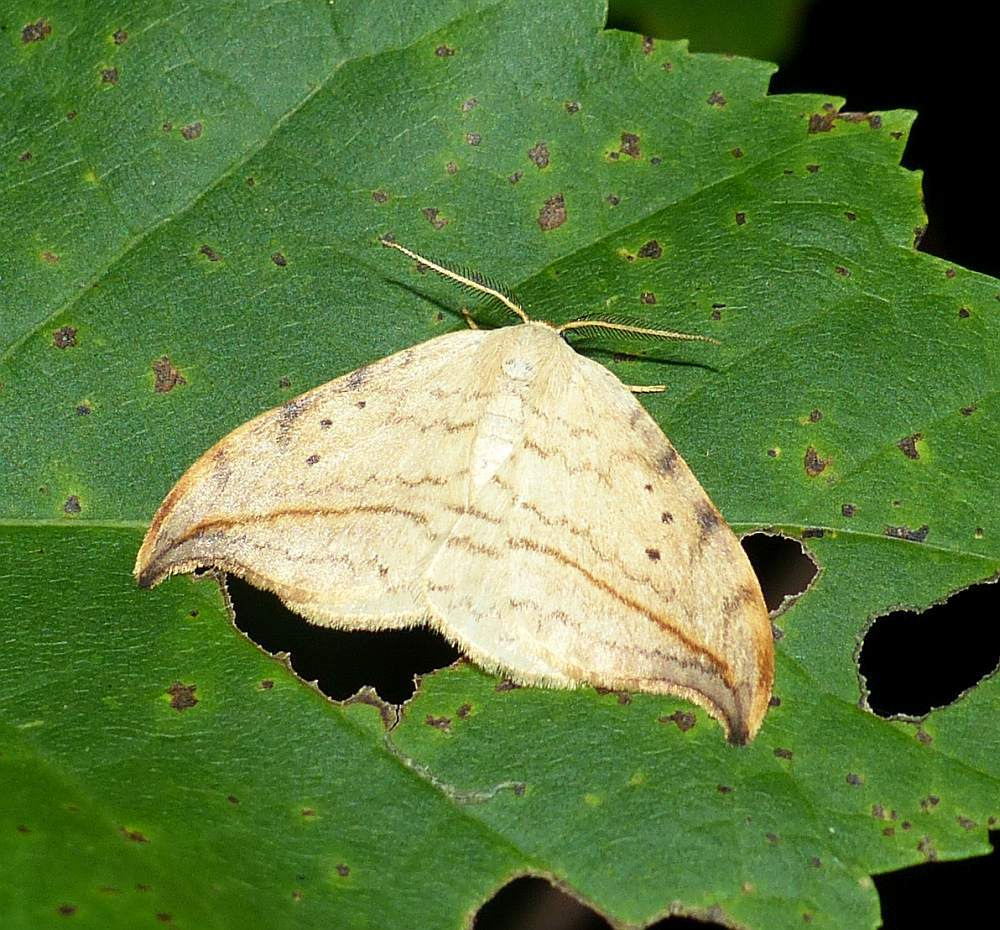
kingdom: Animalia
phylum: Arthropoda
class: Insecta
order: Lepidoptera
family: Drepanidae
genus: Drepana
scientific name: Drepana arcuata
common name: Arched hooktip moth
